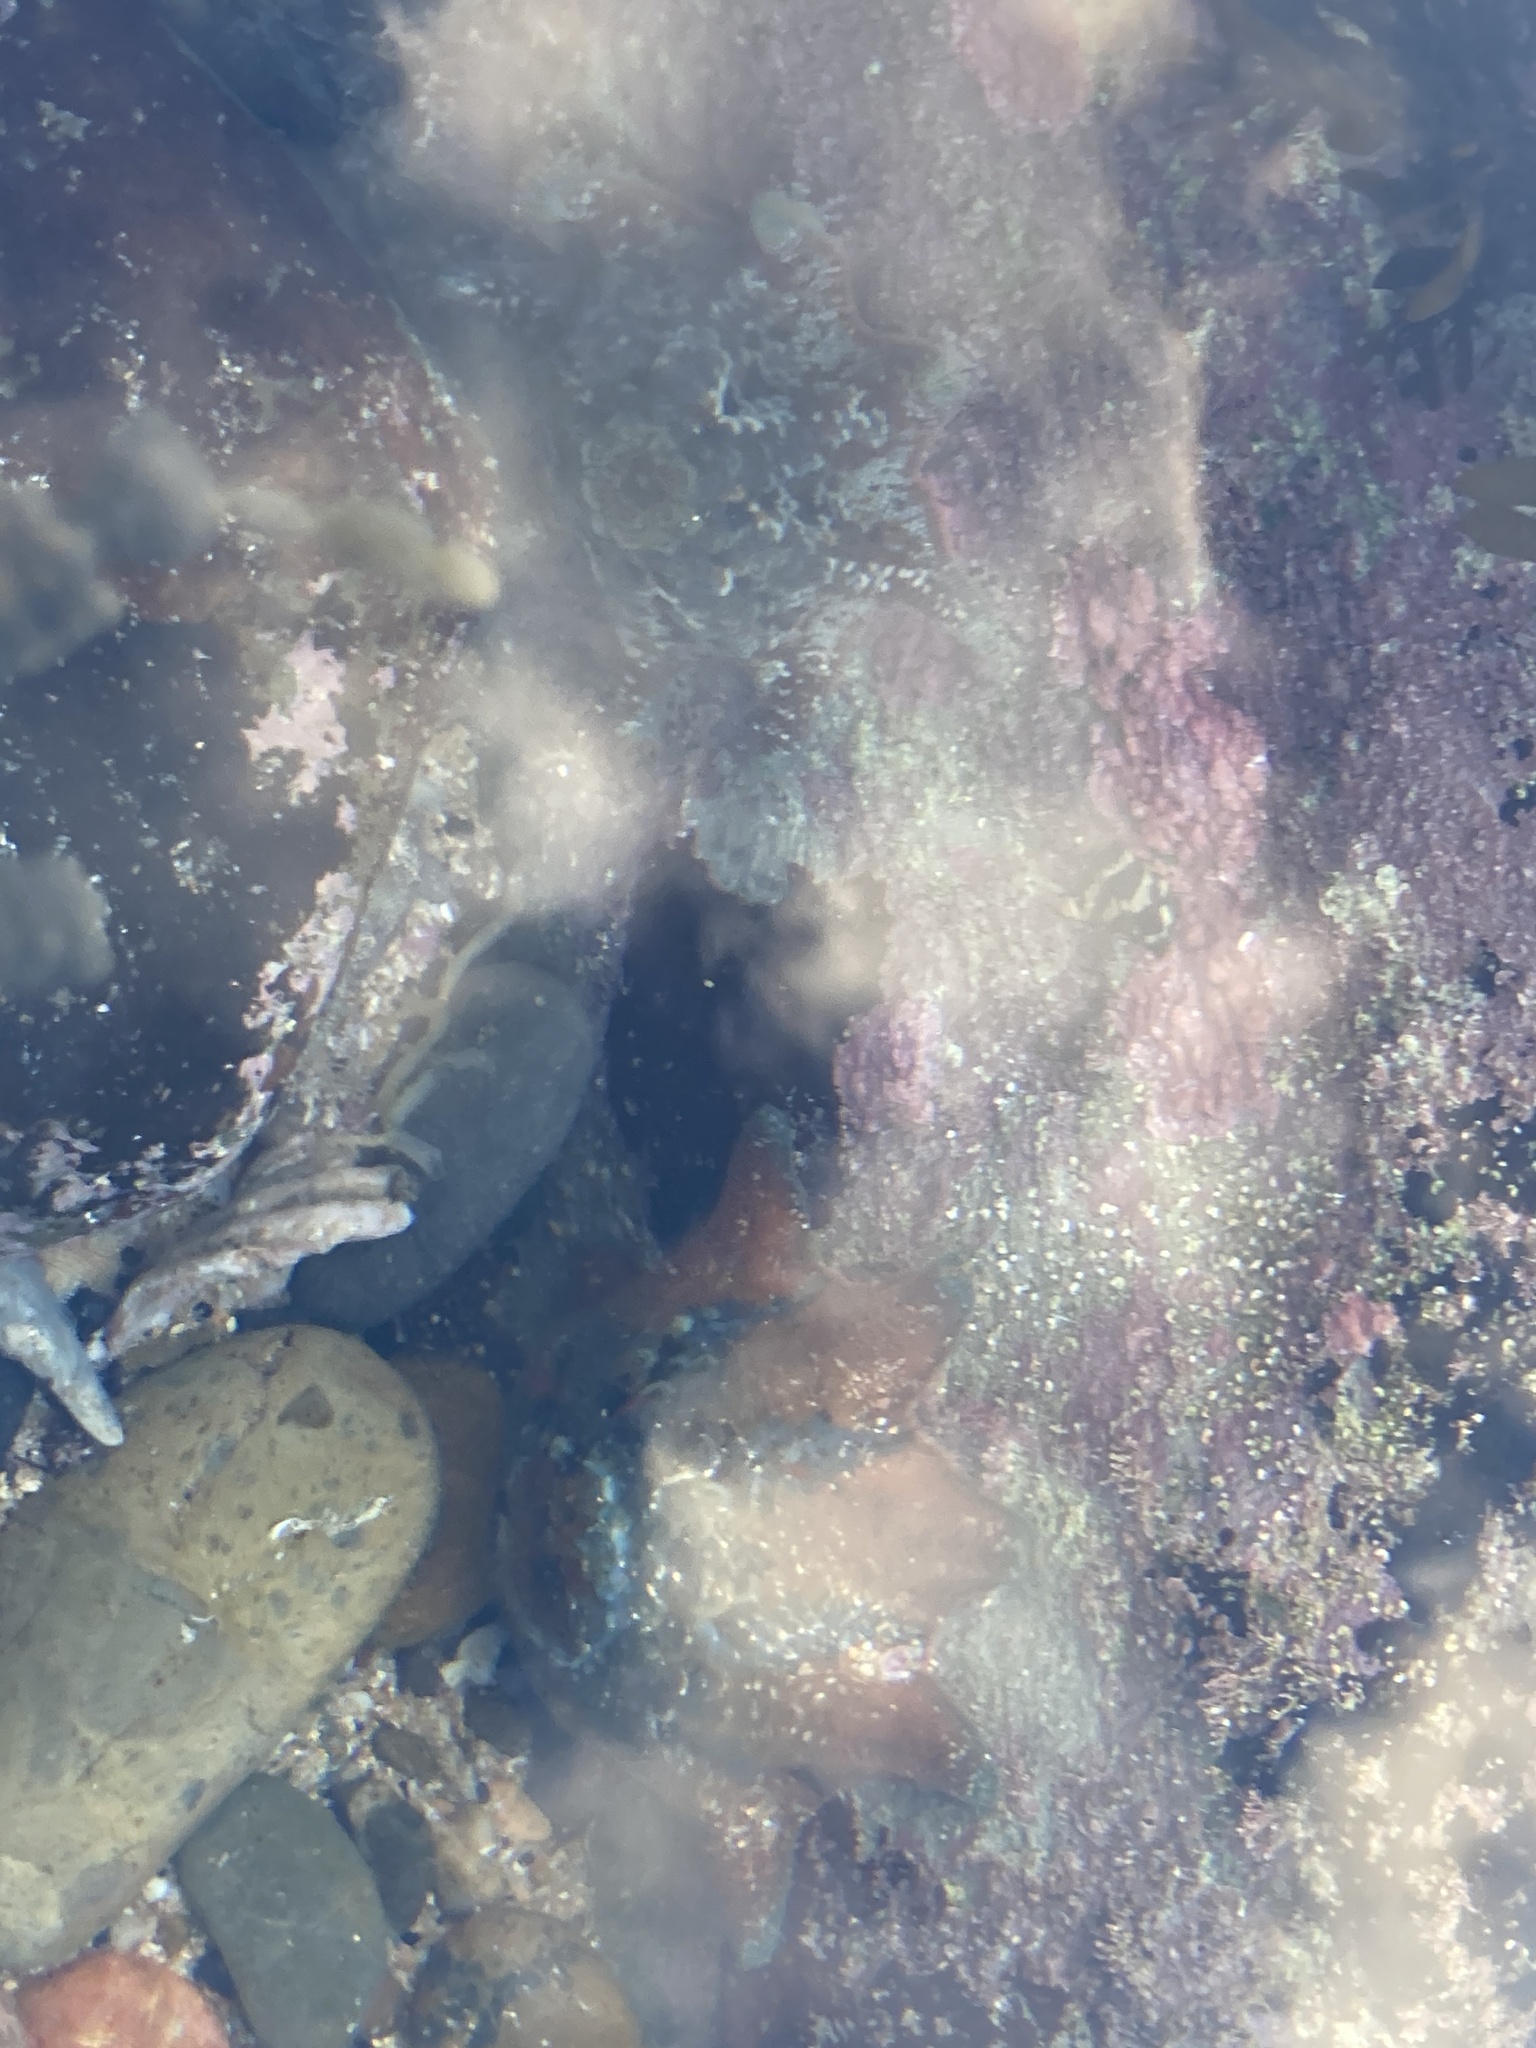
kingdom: Animalia
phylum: Echinodermata
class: Asteroidea
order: Valvatida
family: Asterinidae
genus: Meridiastra
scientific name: Meridiastra calcar
